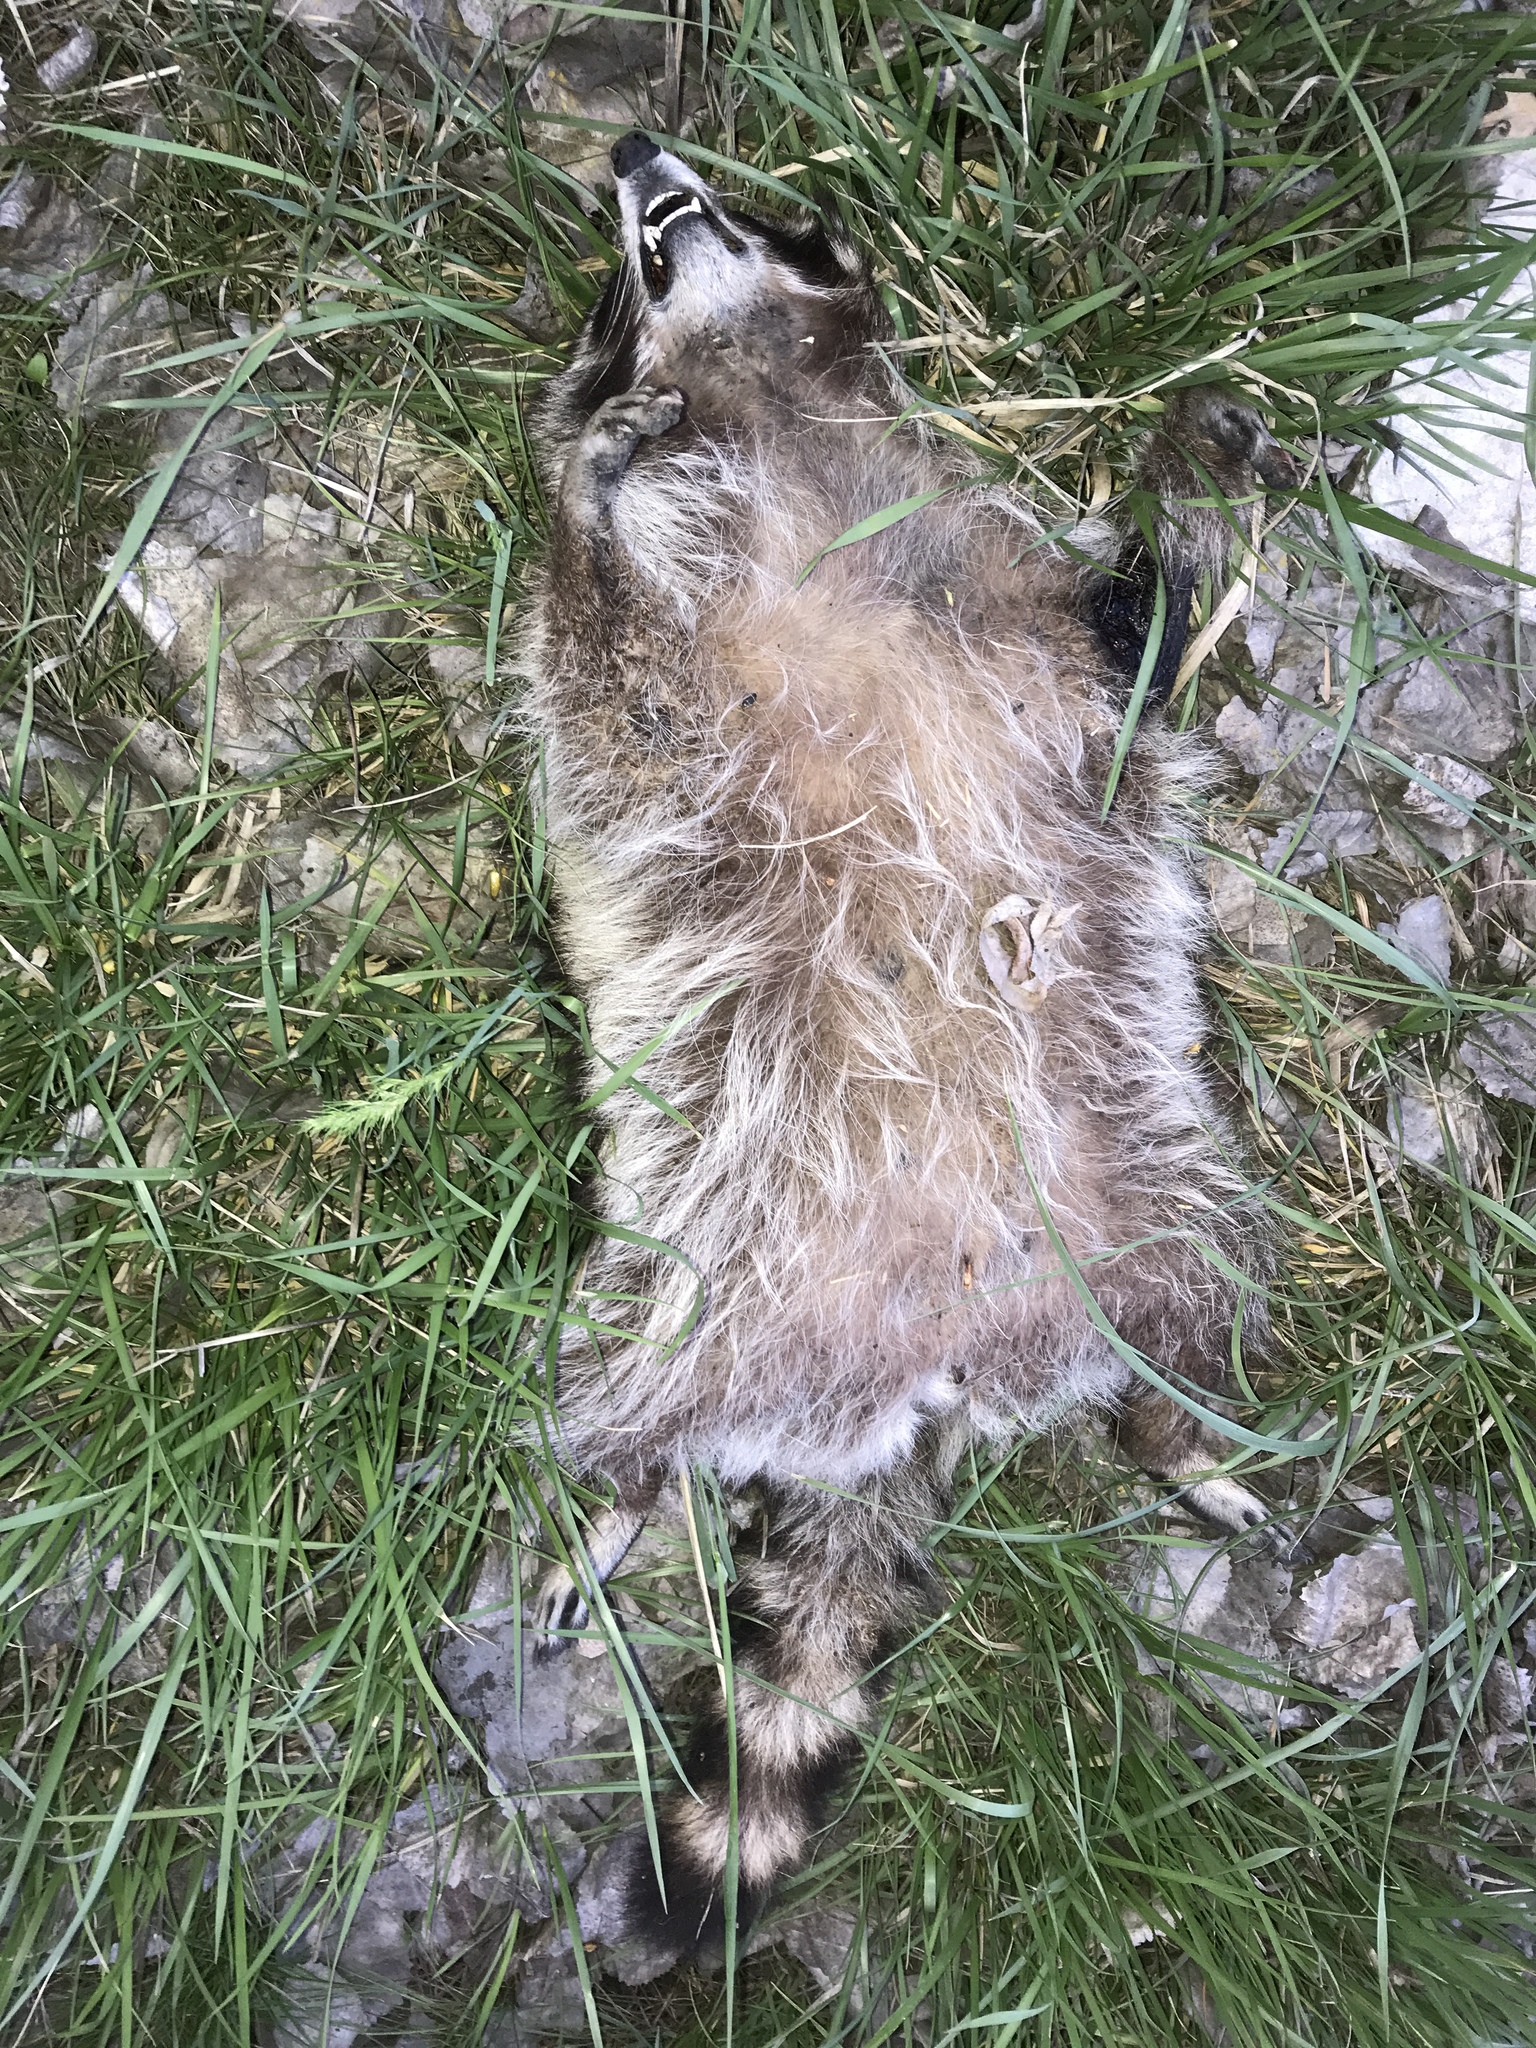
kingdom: Animalia
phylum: Chordata
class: Mammalia
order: Carnivora
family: Procyonidae
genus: Procyon
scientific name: Procyon lotor
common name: Raccoon
